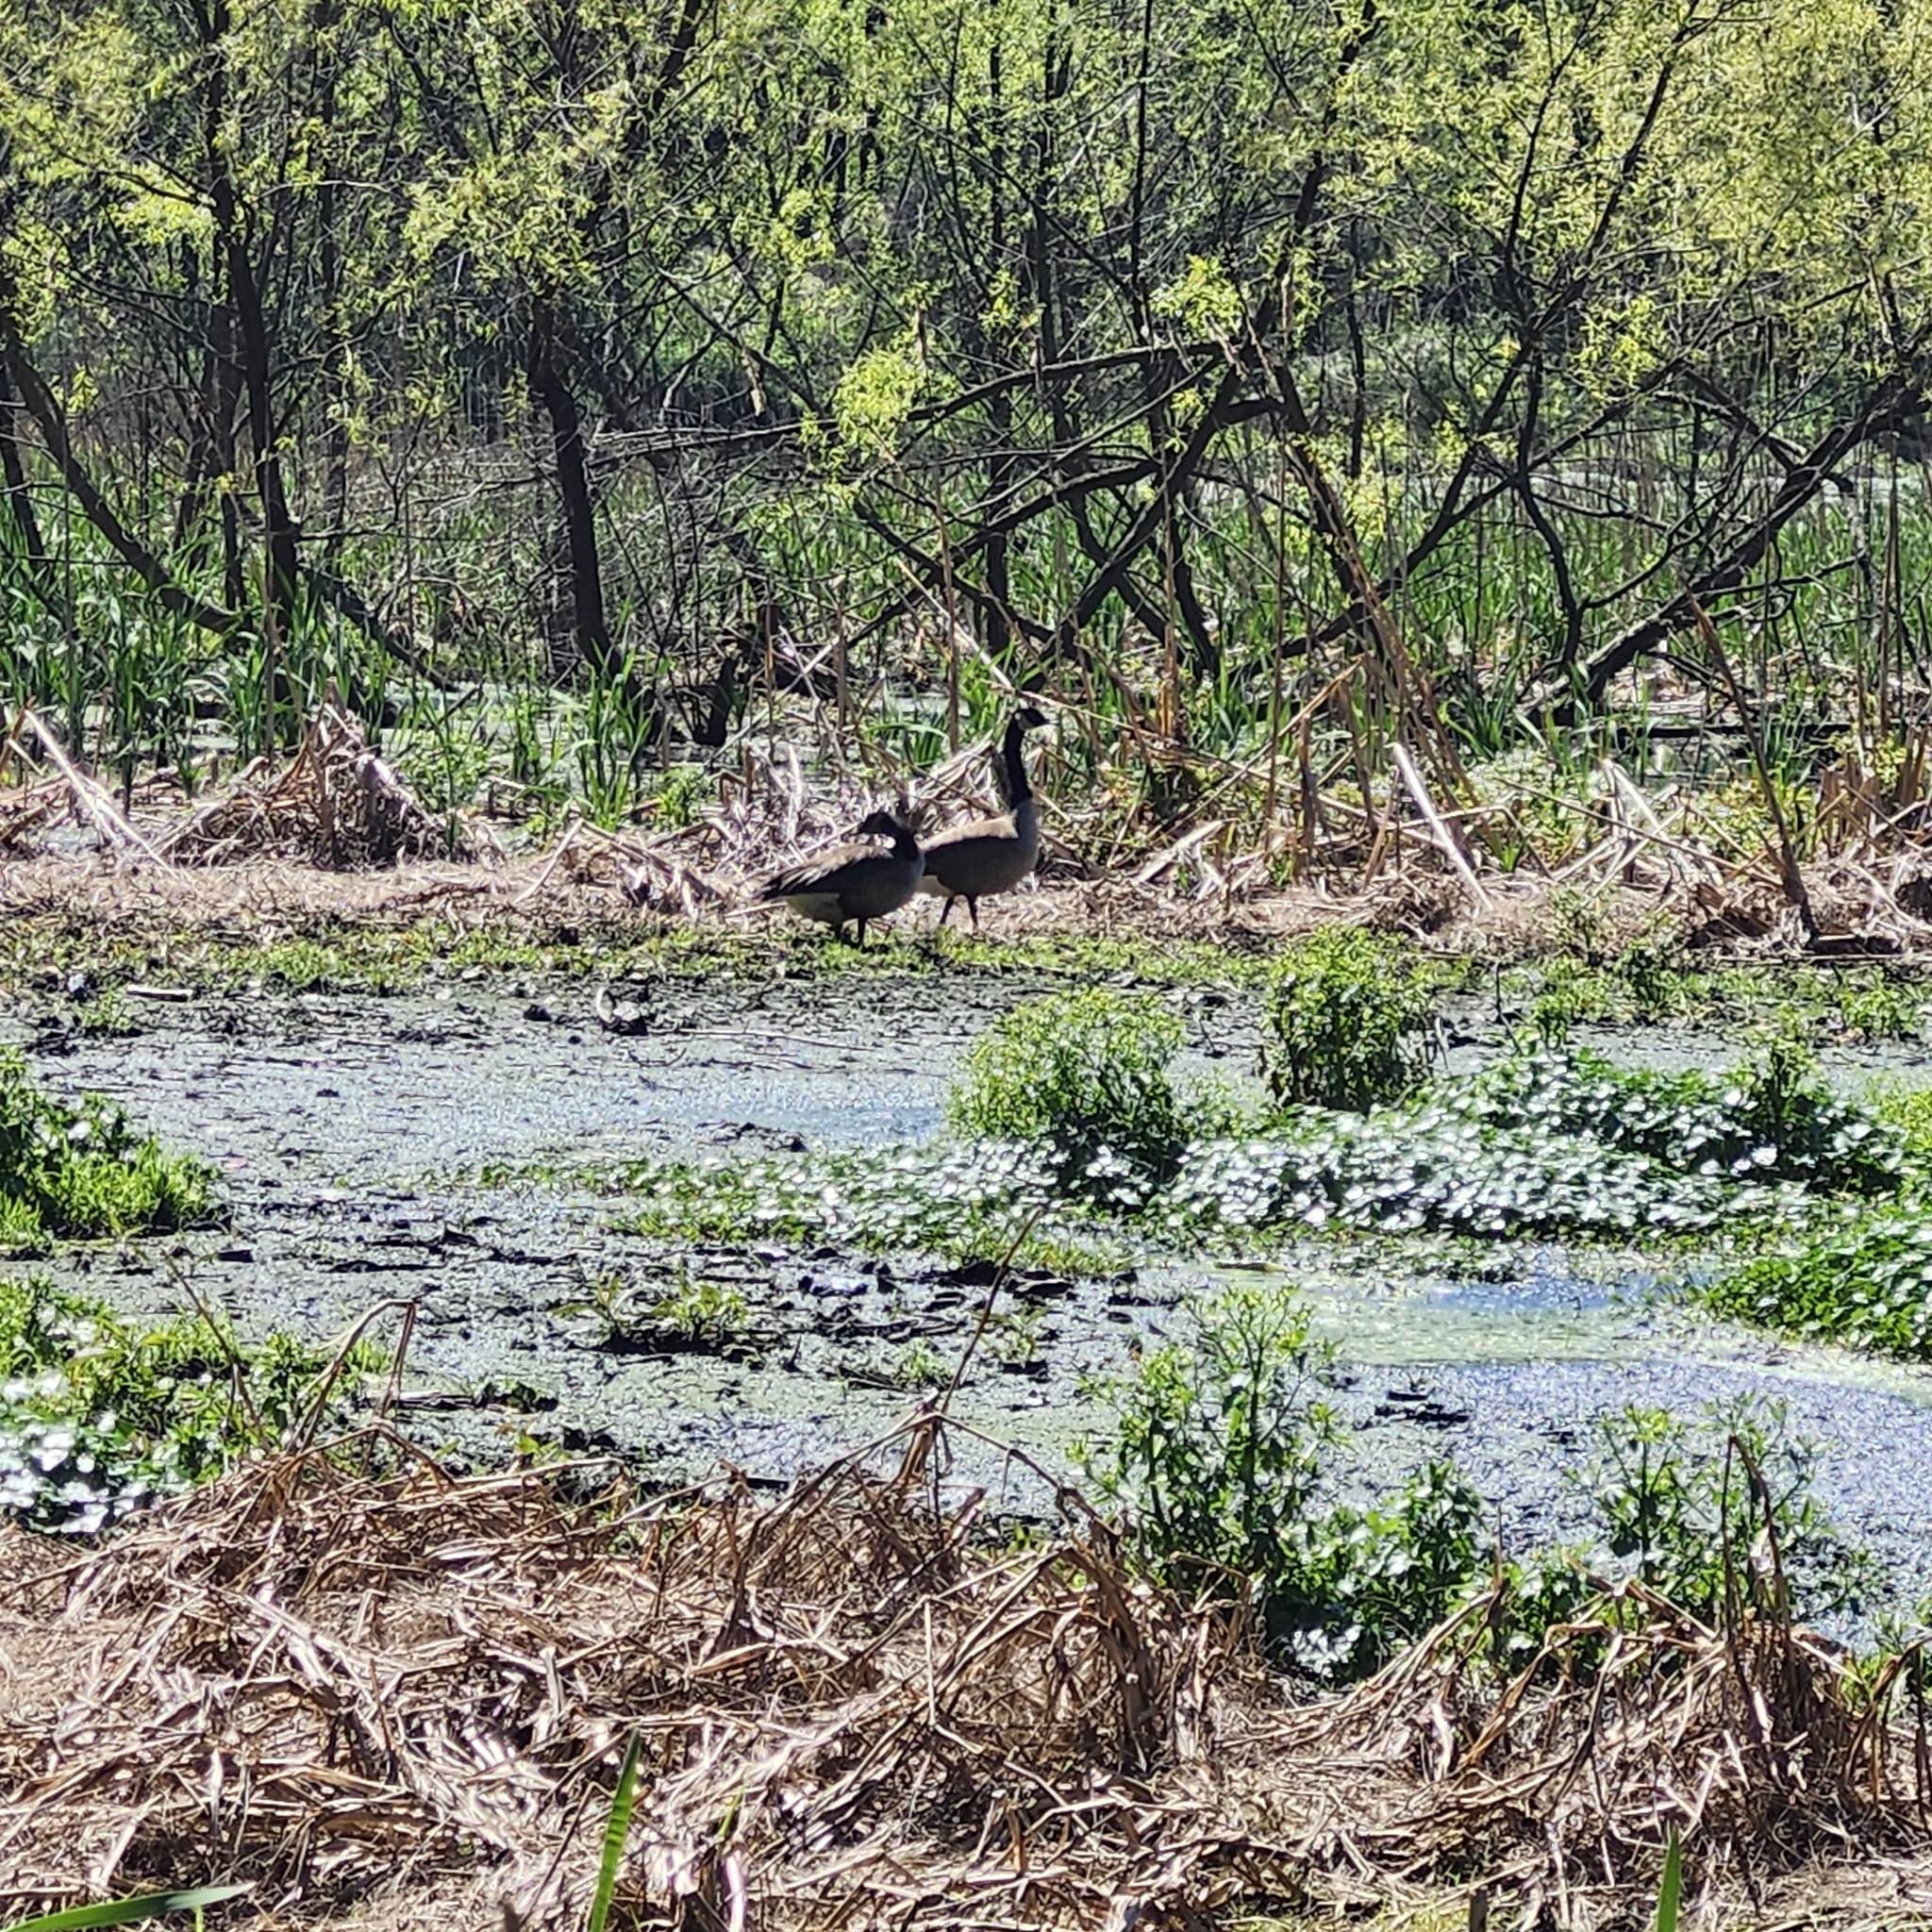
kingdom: Animalia
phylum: Chordata
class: Aves
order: Anseriformes
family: Anatidae
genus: Branta
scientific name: Branta canadensis
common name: Canada goose
